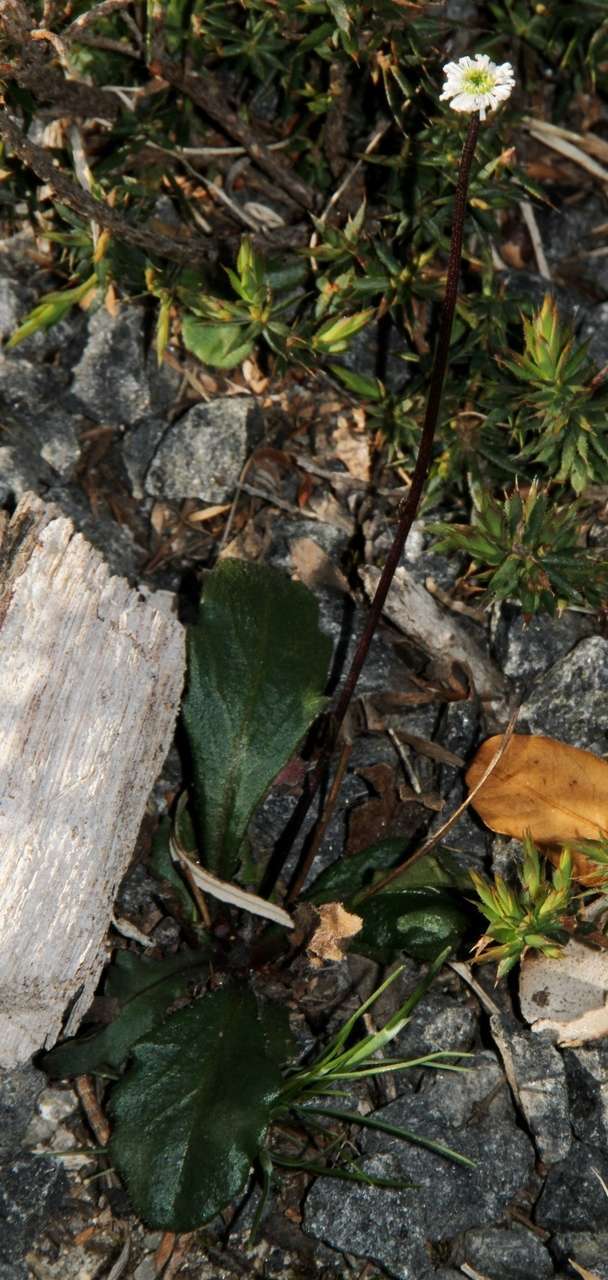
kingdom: Plantae
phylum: Tracheophyta
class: Magnoliopsida
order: Asterales
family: Asteraceae
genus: Lagenophora
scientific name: Lagenophora sublyrata ter
